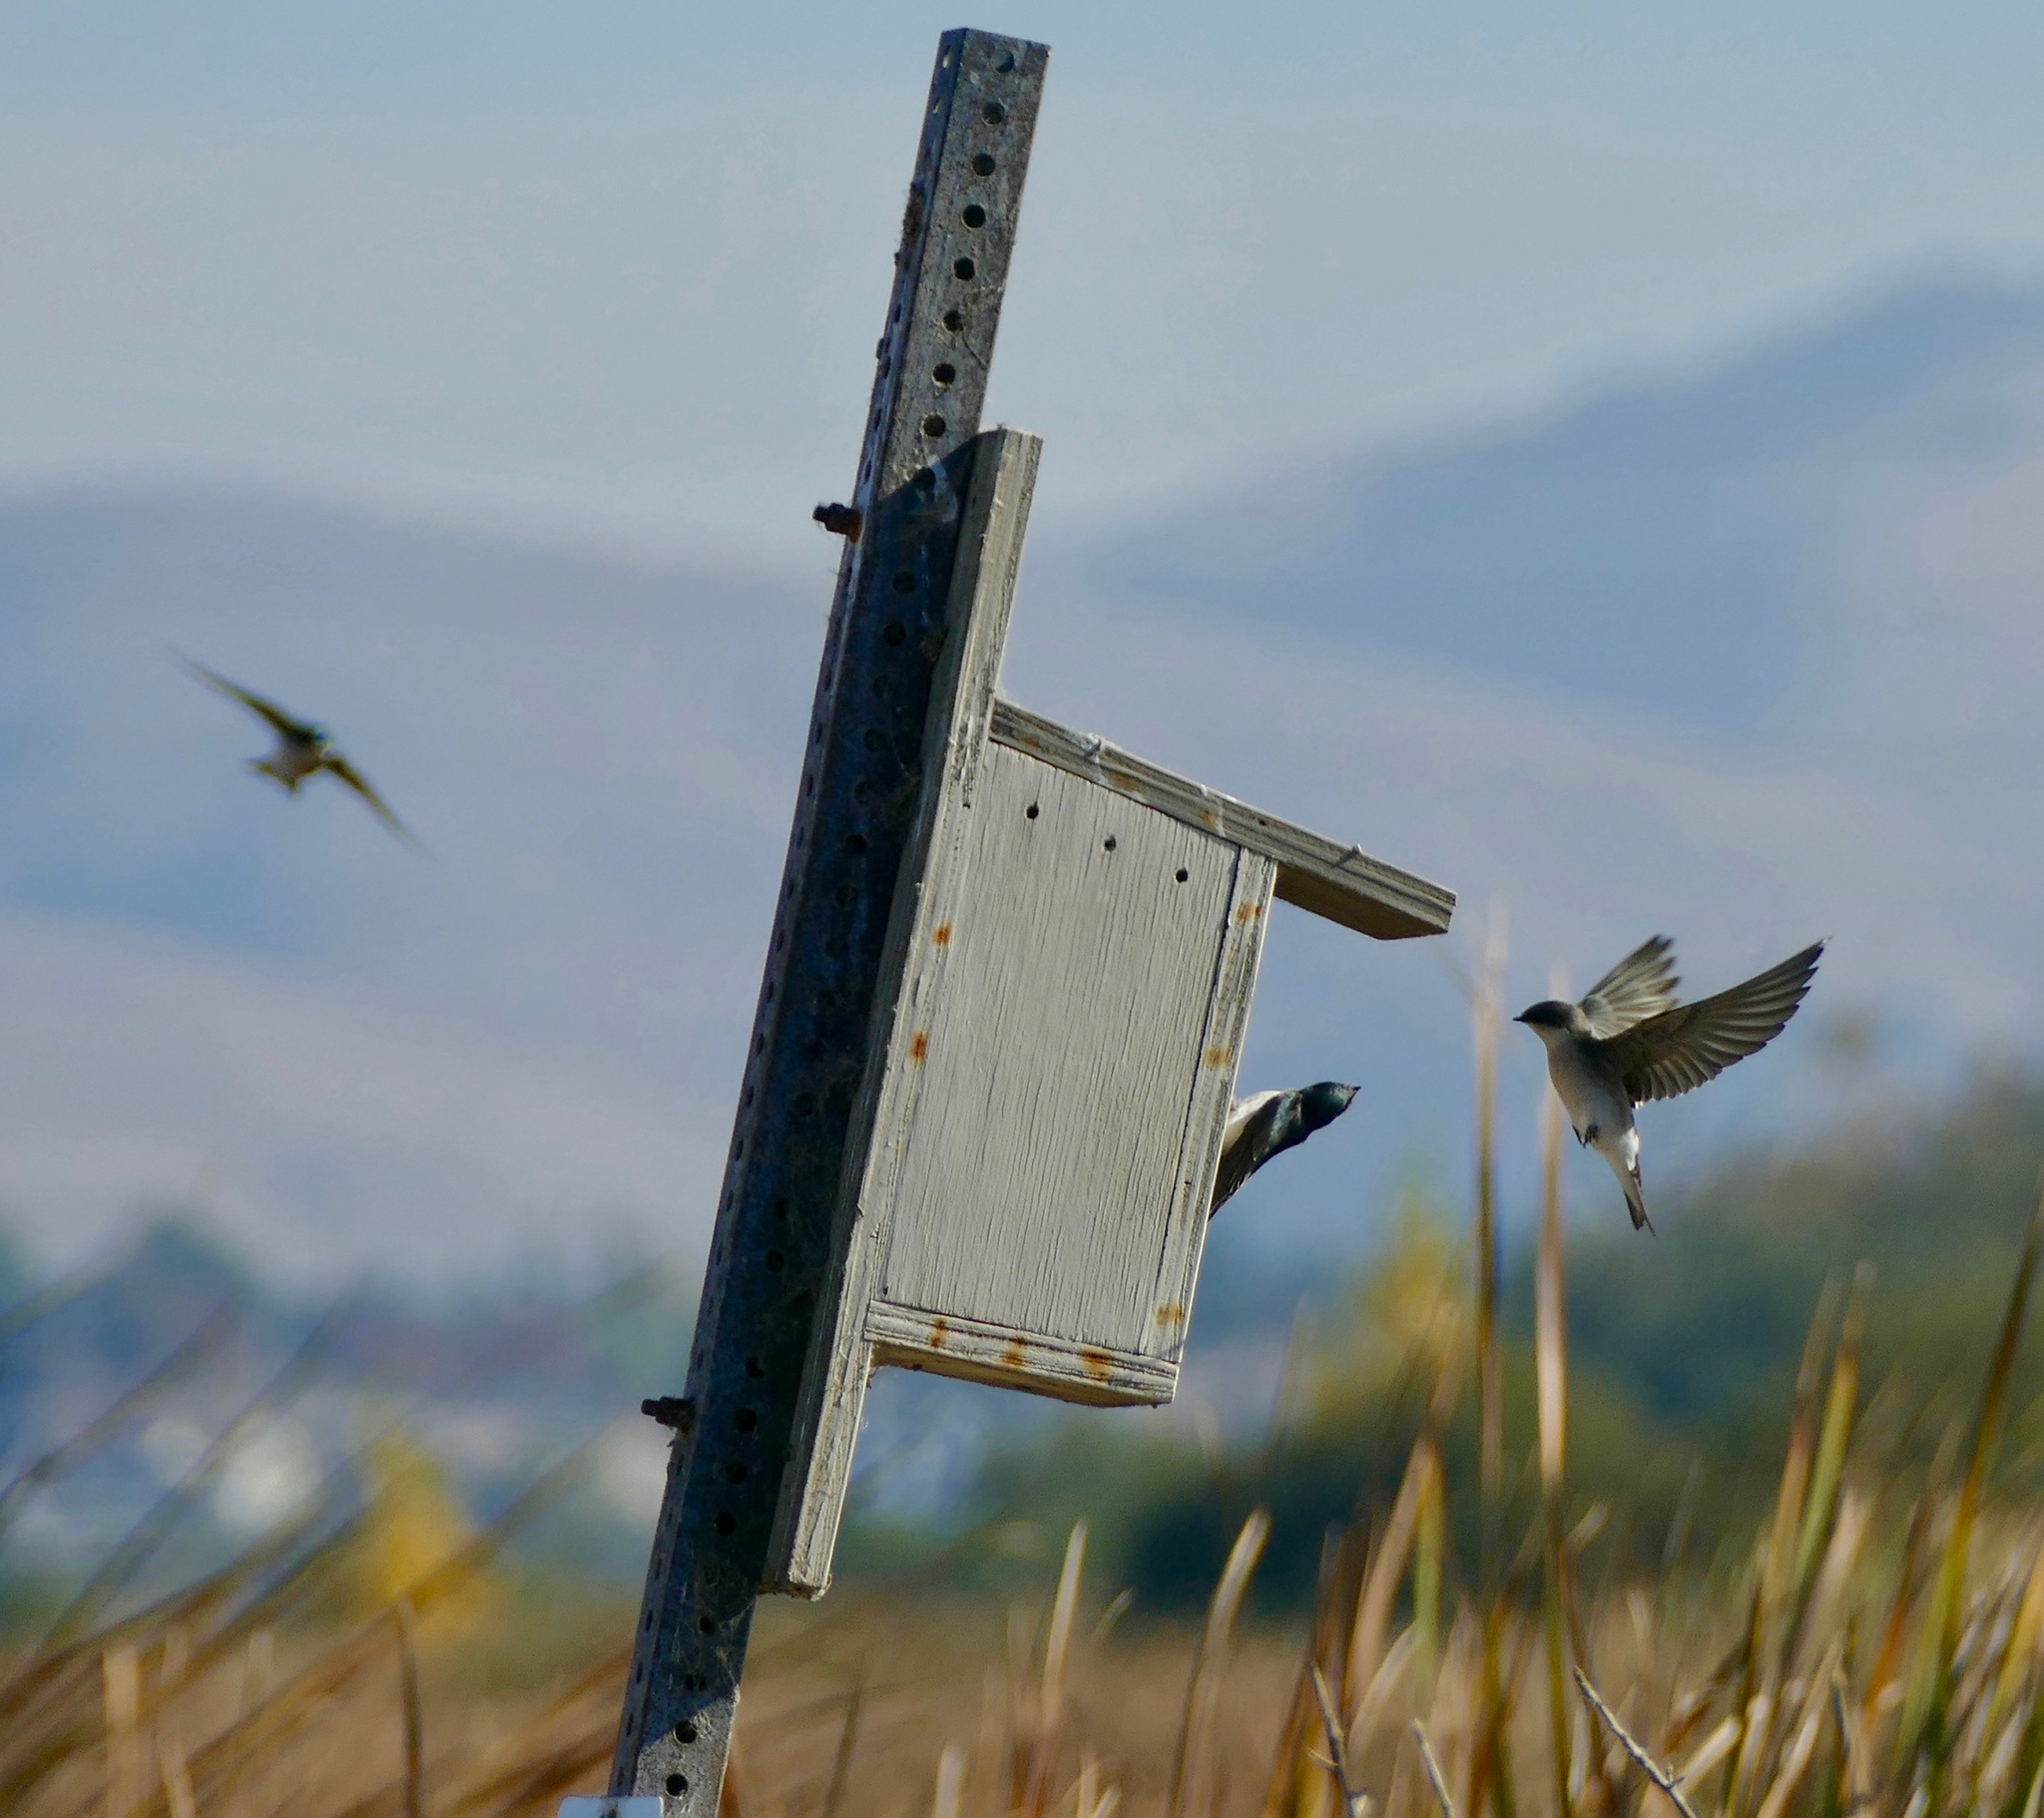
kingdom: Animalia
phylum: Chordata
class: Aves
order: Passeriformes
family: Hirundinidae
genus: Tachycineta
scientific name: Tachycineta bicolor
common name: Tree swallow
